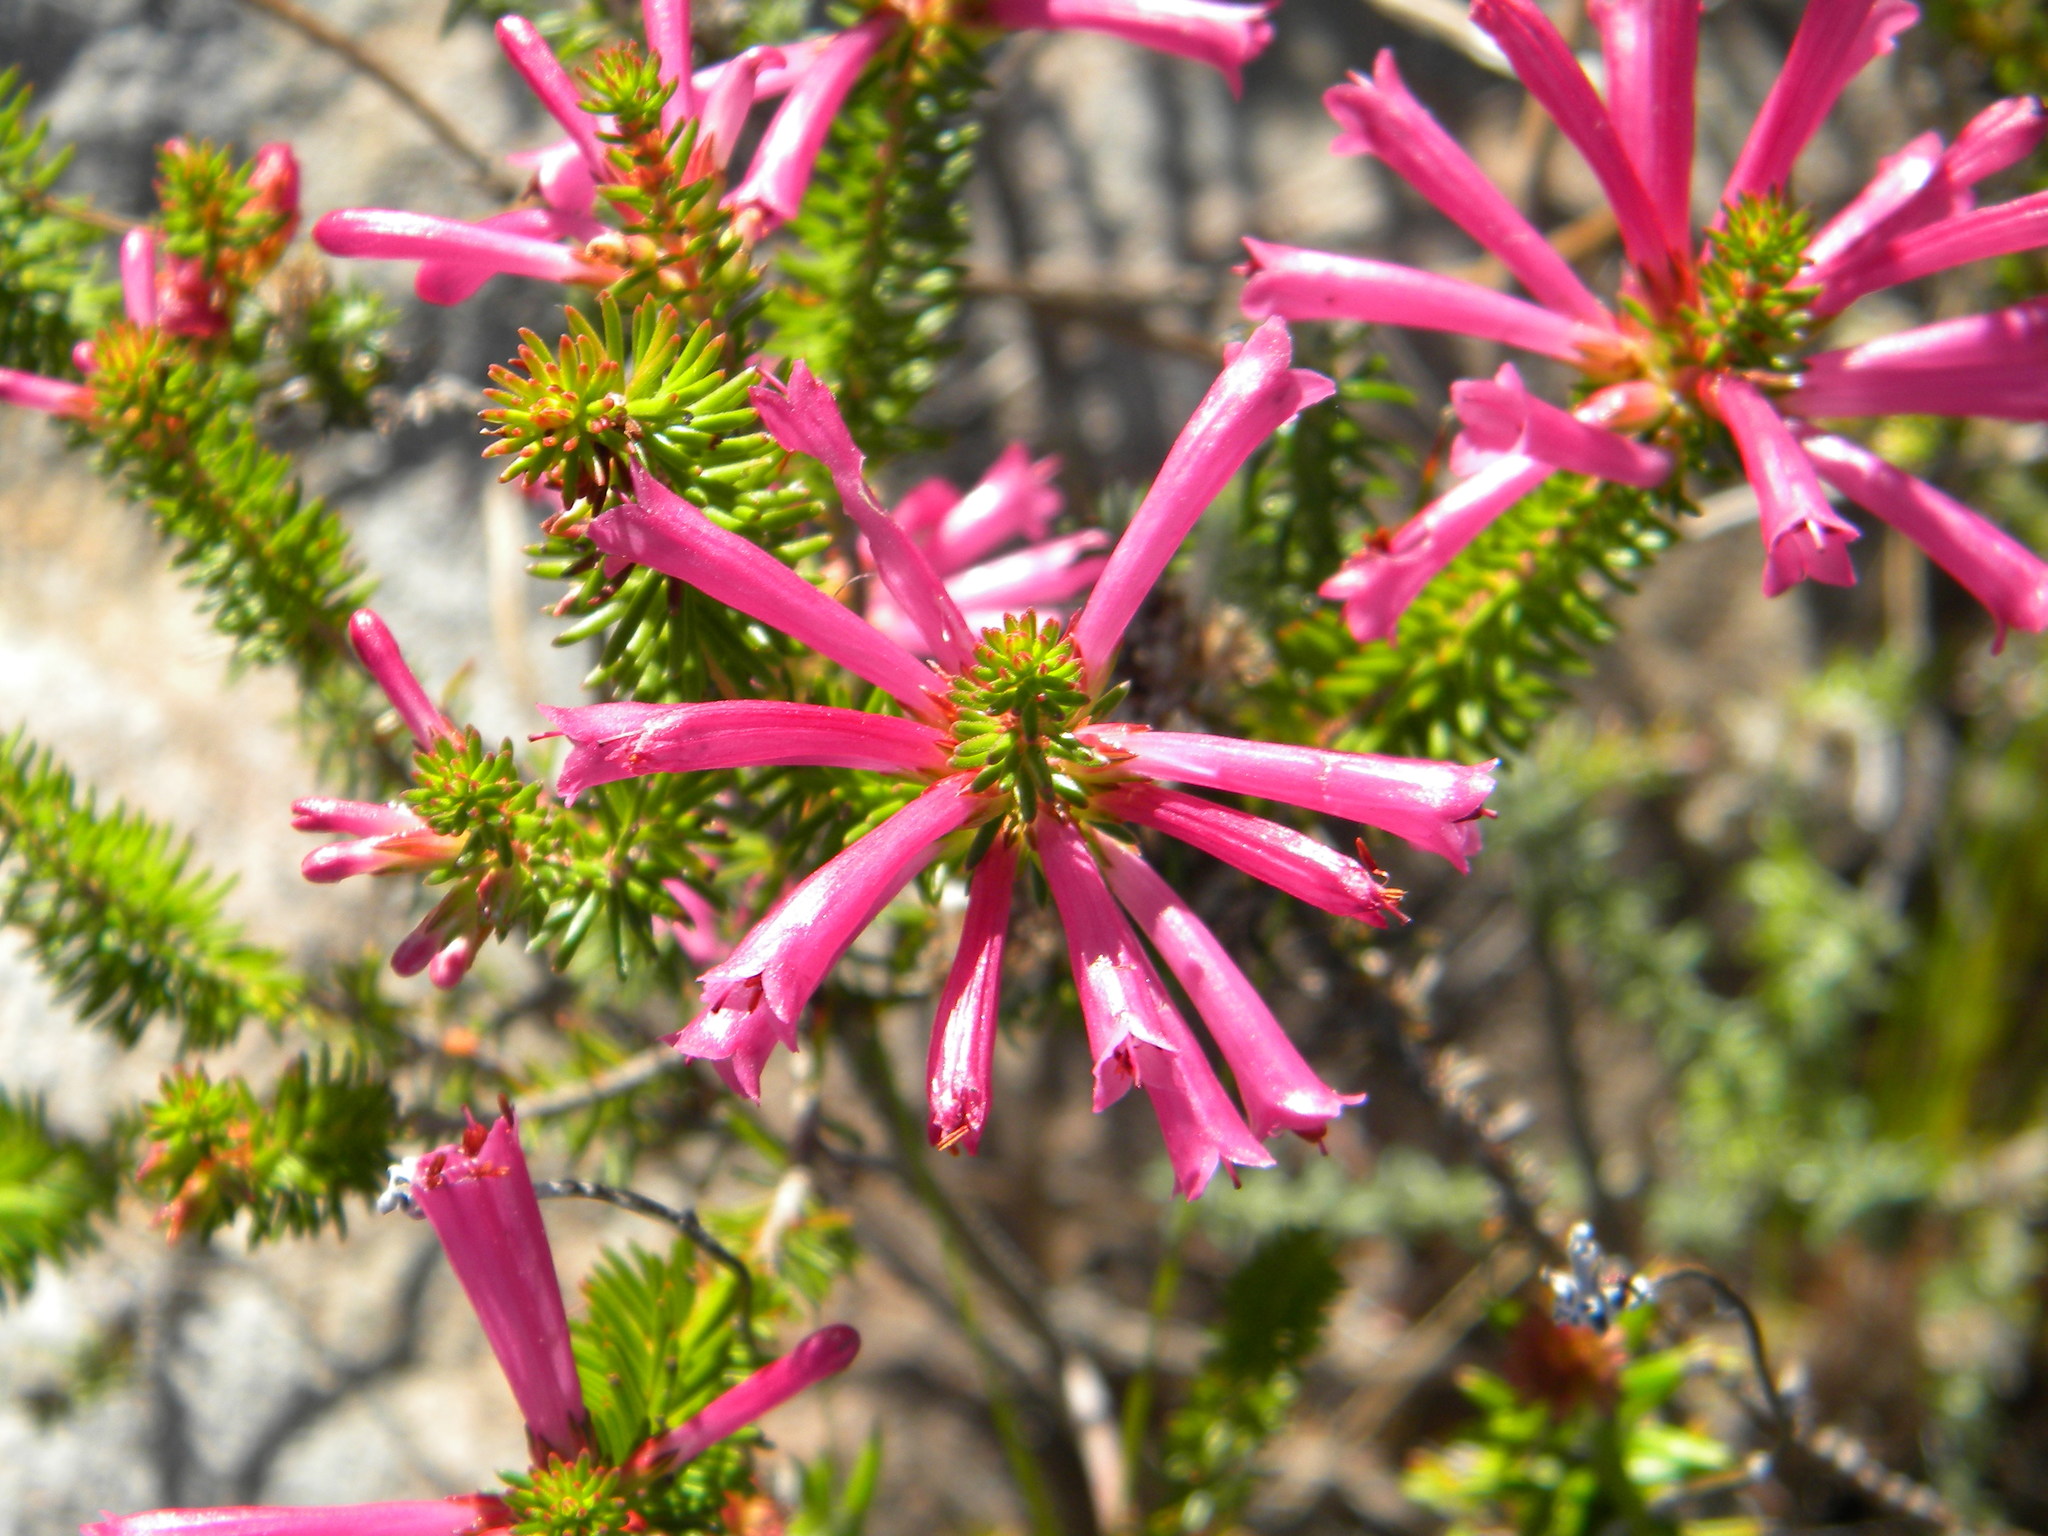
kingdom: Plantae
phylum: Tracheophyta
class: Magnoliopsida
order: Ericales
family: Ericaceae
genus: Erica
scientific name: Erica abietina
